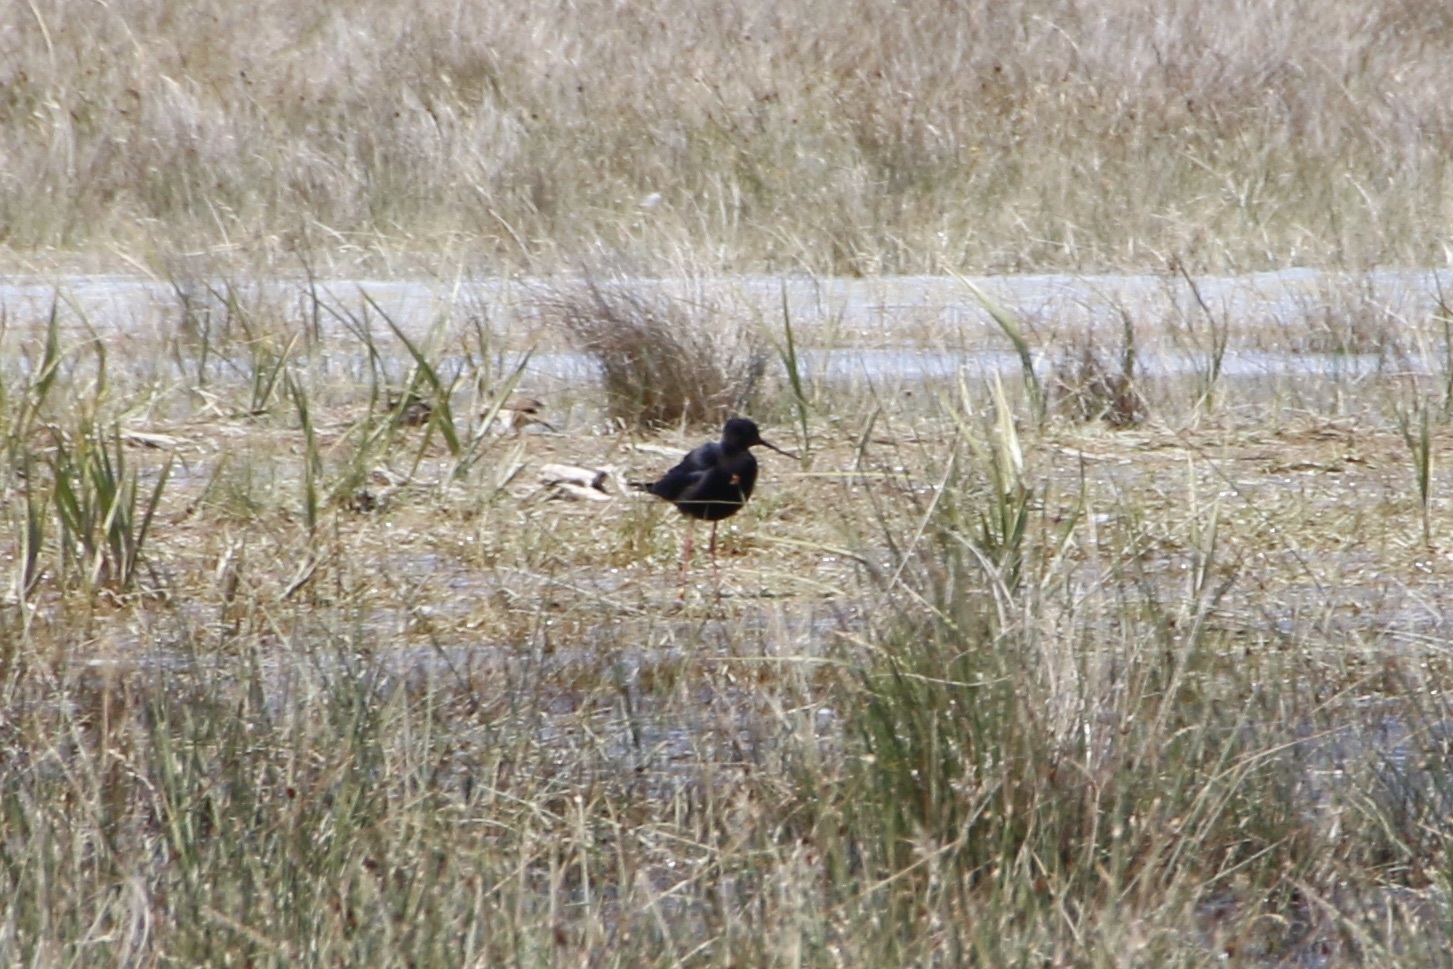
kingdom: Animalia
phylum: Chordata
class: Aves
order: Charadriiformes
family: Recurvirostridae
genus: Himantopus
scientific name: Himantopus novaezelandiae
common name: Black stilt
